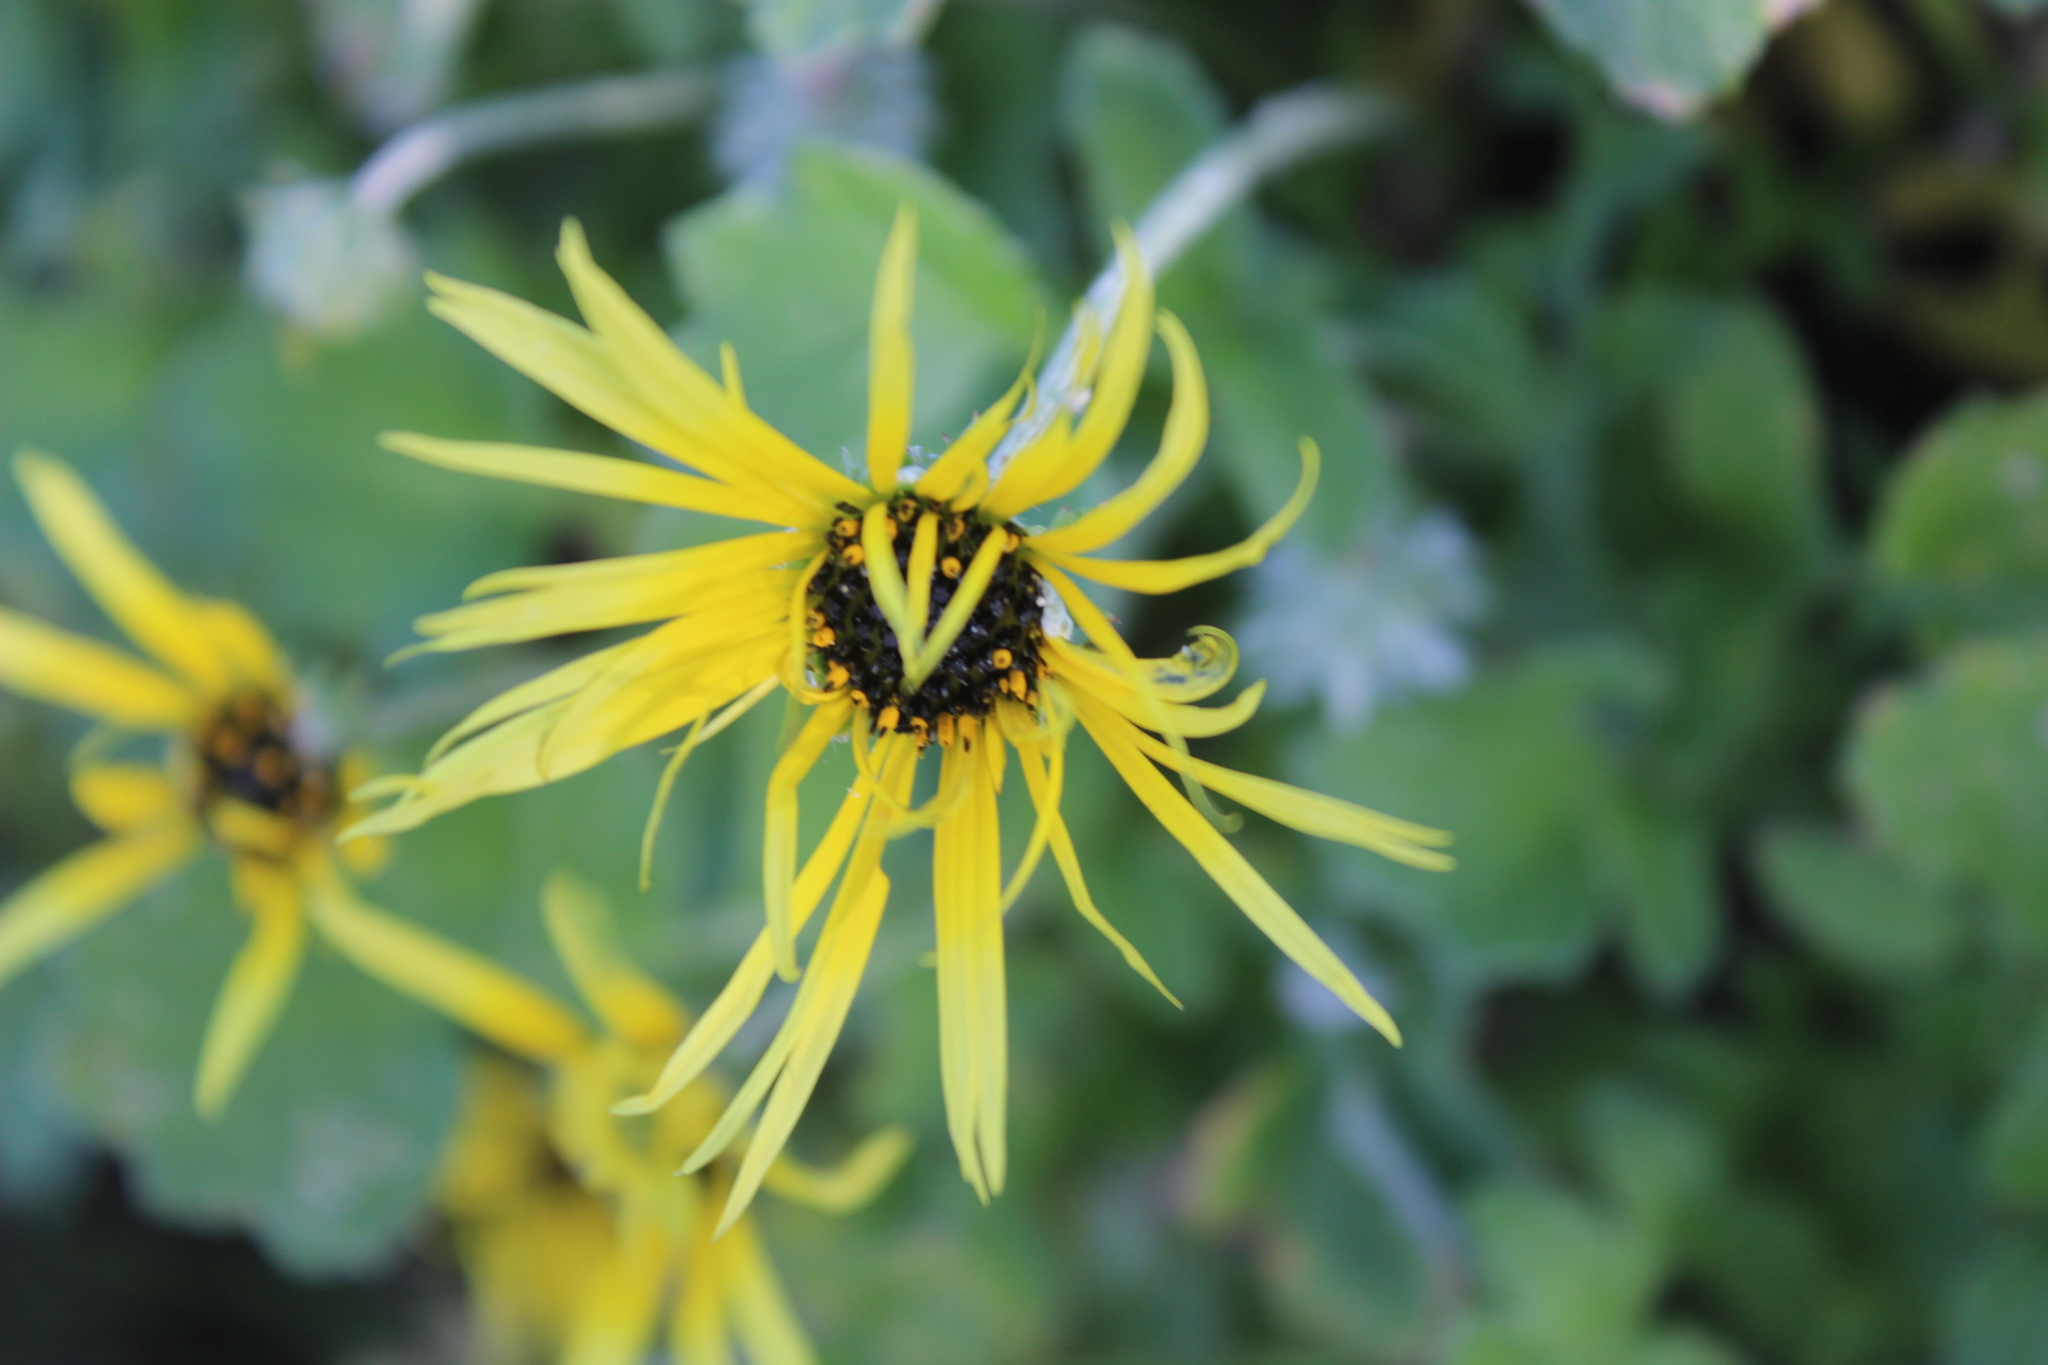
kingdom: Plantae
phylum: Tracheophyta
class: Magnoliopsida
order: Asterales
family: Asteraceae
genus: Arctotheca
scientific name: Arctotheca calendula
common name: Capeweed
